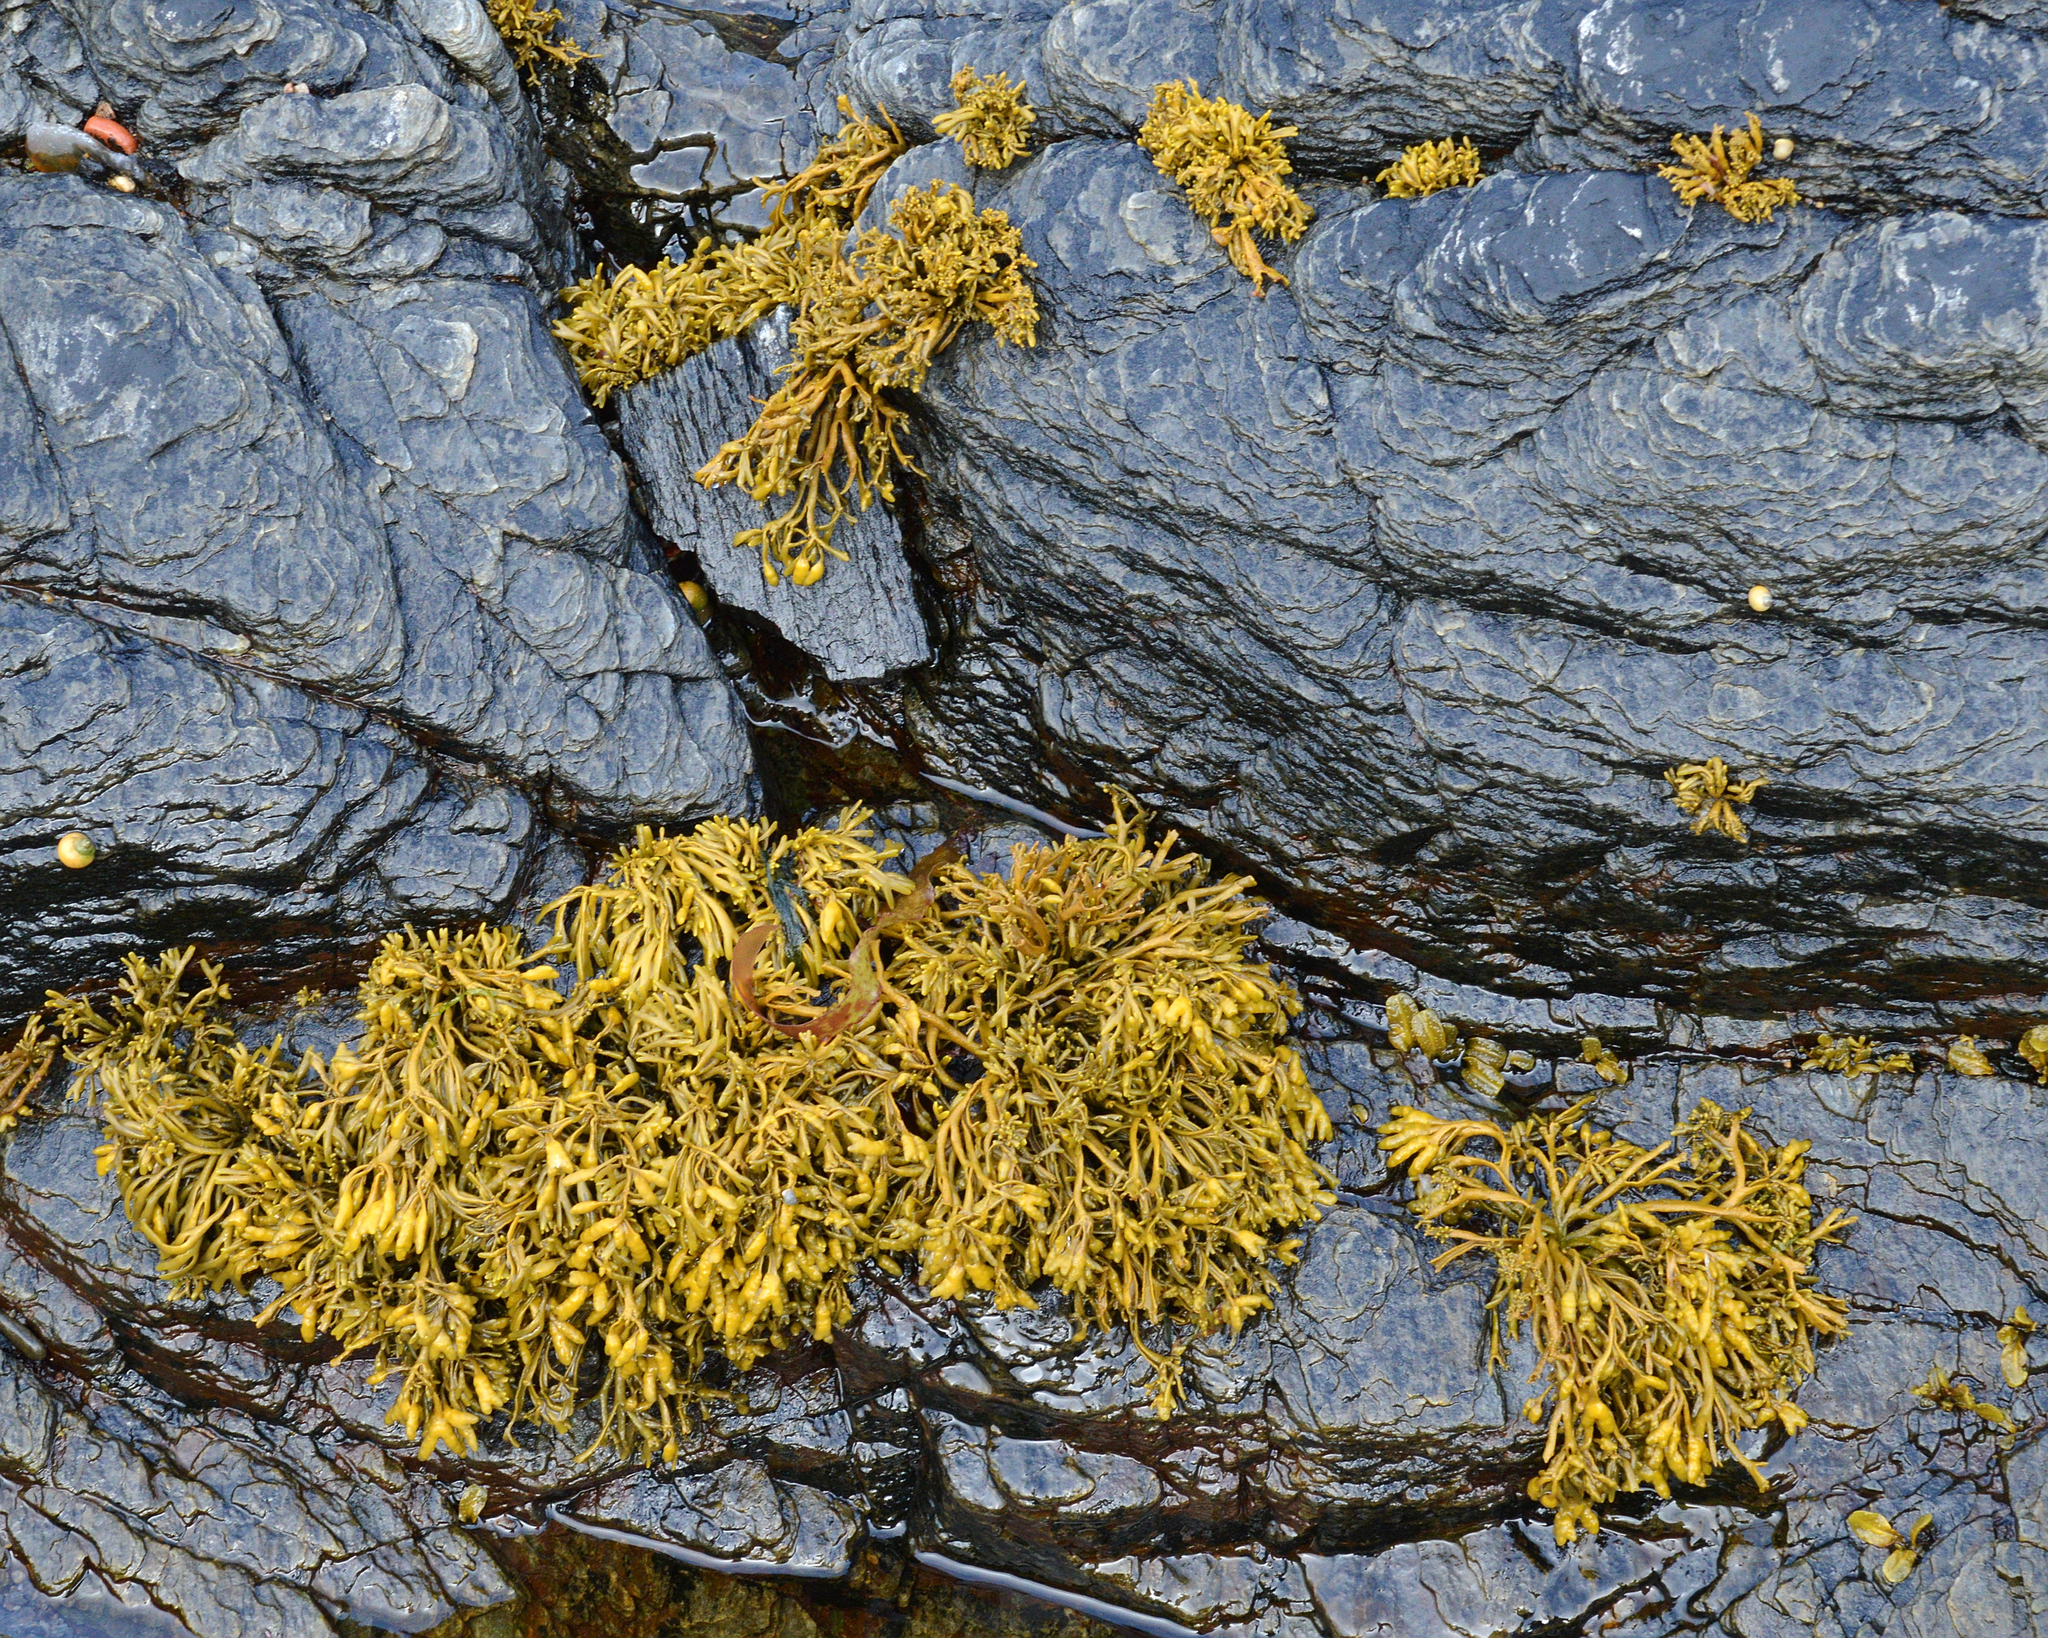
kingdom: Chromista
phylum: Ochrophyta
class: Phaeophyceae
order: Fucales
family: Fucaceae
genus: Pelvetia
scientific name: Pelvetia canaliculata
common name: Channelled wrack
